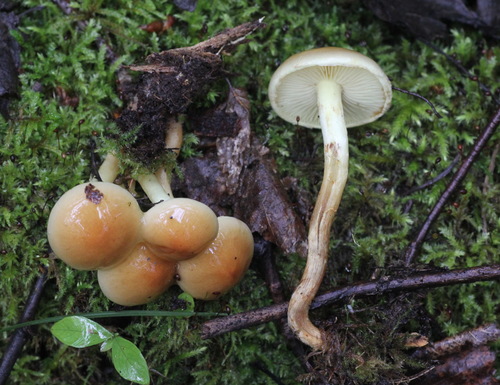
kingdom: Fungi
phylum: Basidiomycota
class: Agaricomycetes
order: Agaricales
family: Strophariaceae
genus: Hypholoma
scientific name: Hypholoma lateritium
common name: Brick caps
